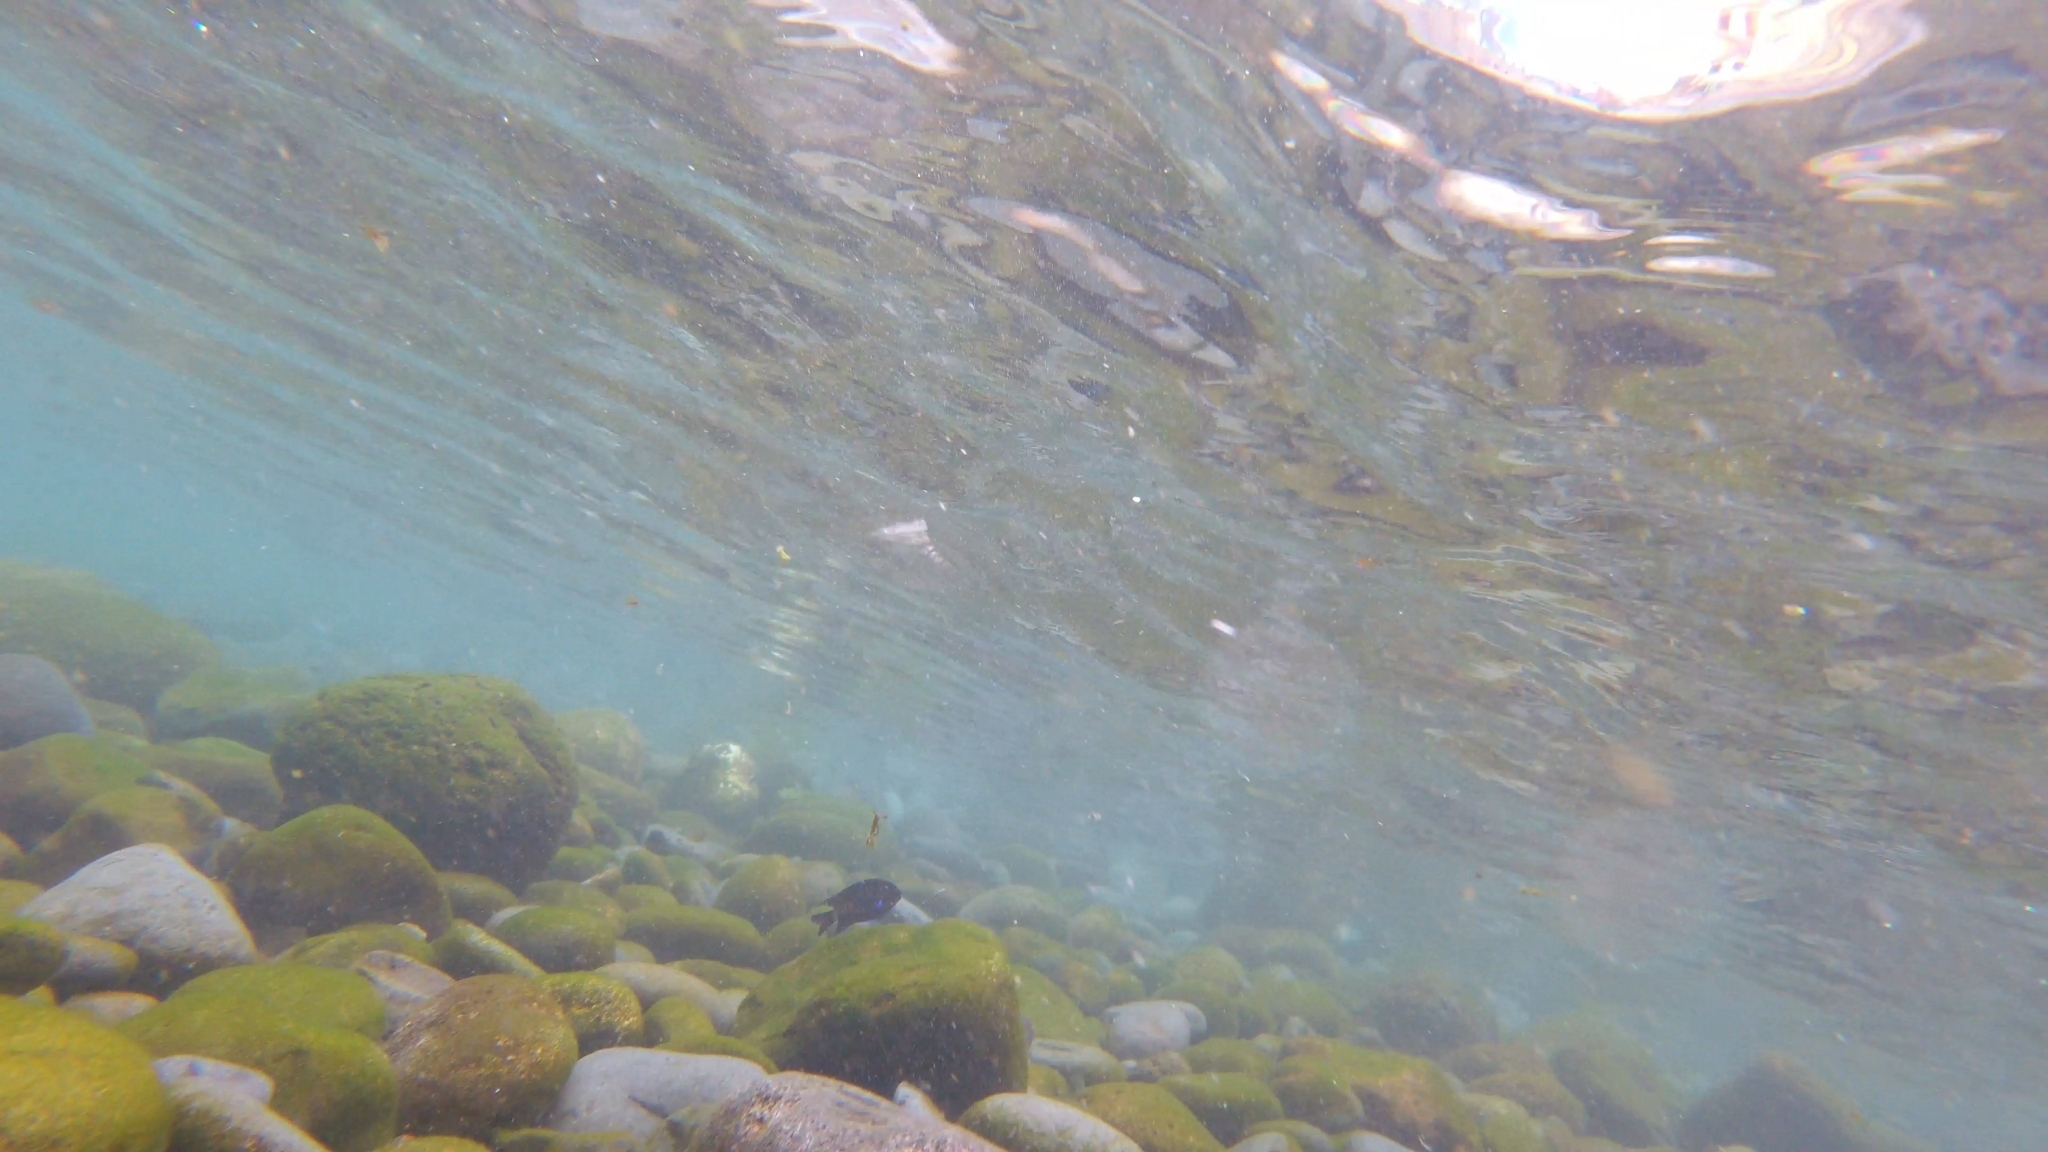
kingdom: Animalia
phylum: Chordata
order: Perciformes
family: Pomacentridae
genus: Similiparma
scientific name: Similiparma lurida
